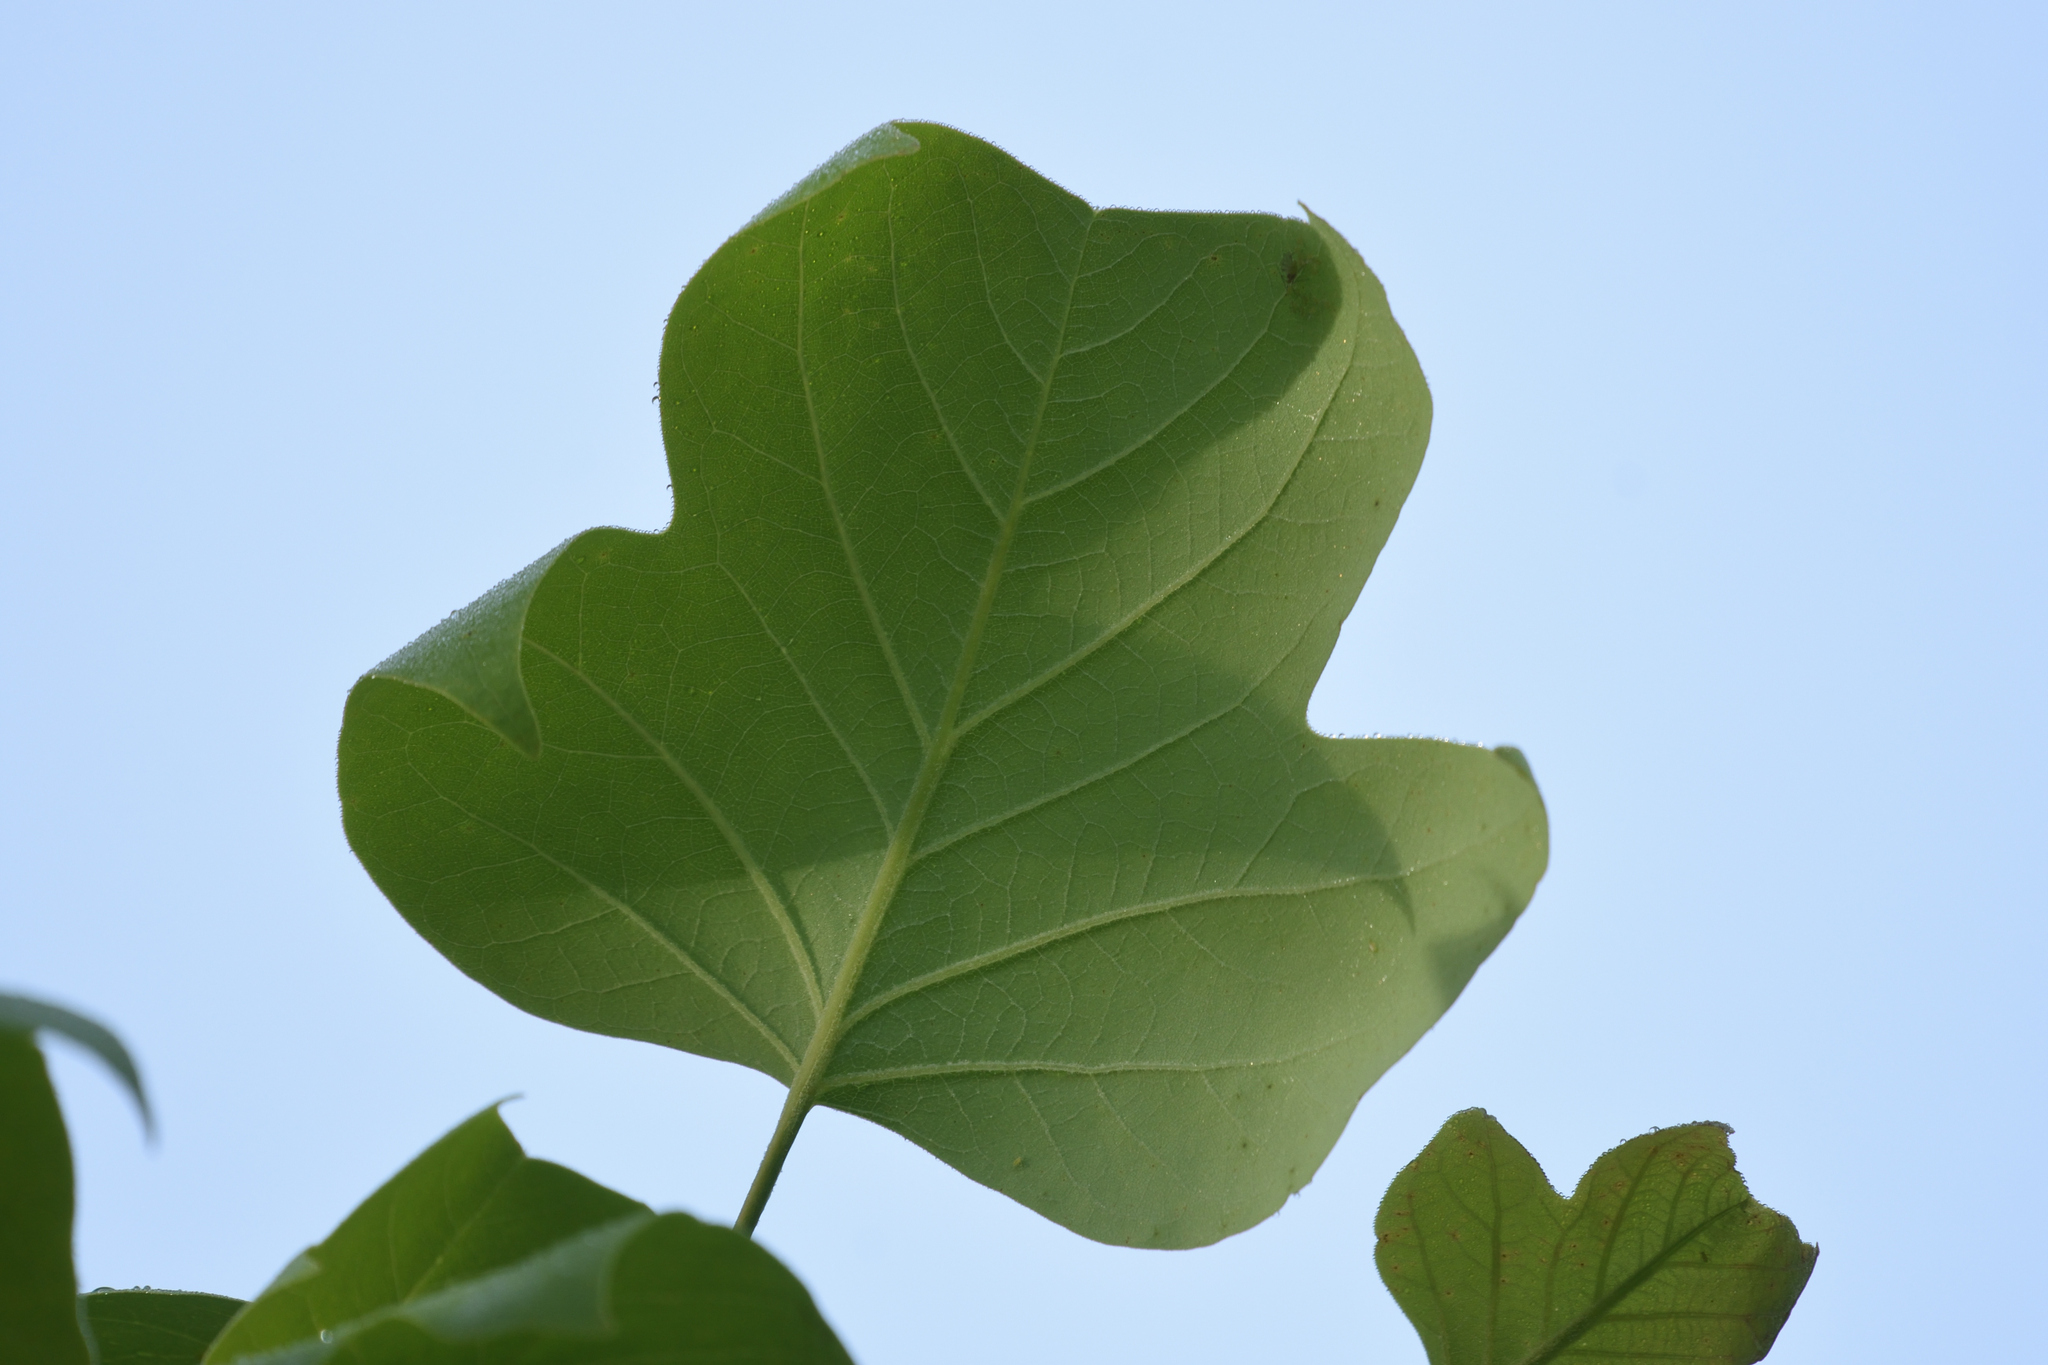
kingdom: Plantae
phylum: Tracheophyta
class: Magnoliopsida
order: Magnoliales
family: Magnoliaceae
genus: Liriodendron
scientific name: Liriodendron tulipifera
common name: Tulip tree
